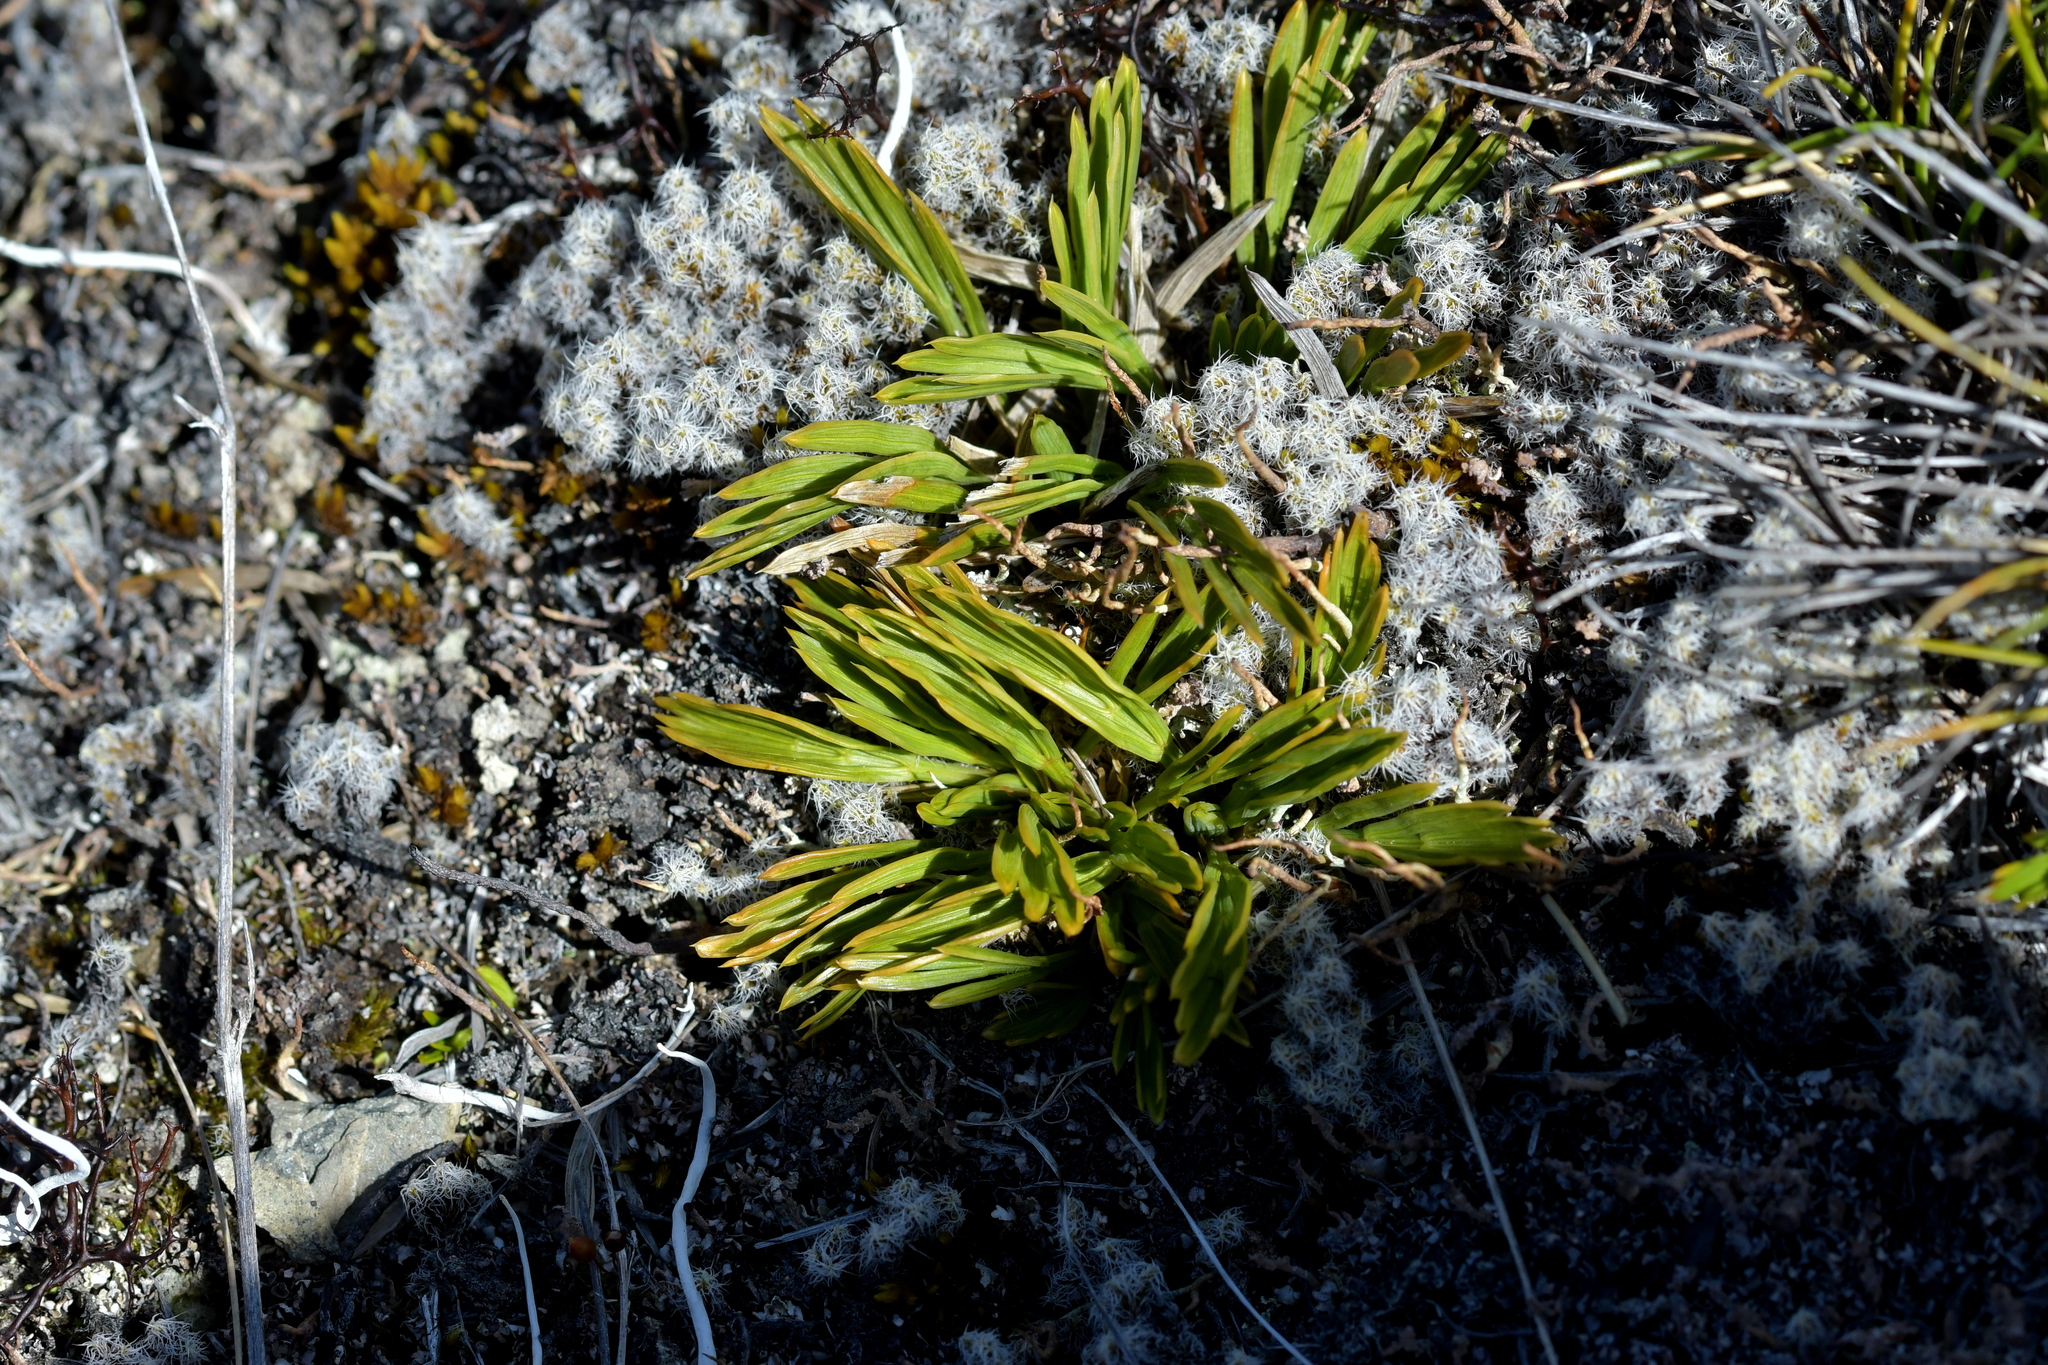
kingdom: Plantae
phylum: Tracheophyta
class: Magnoliopsida
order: Apiales
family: Apiaceae
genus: Aciphylla
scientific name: Aciphylla monroi
